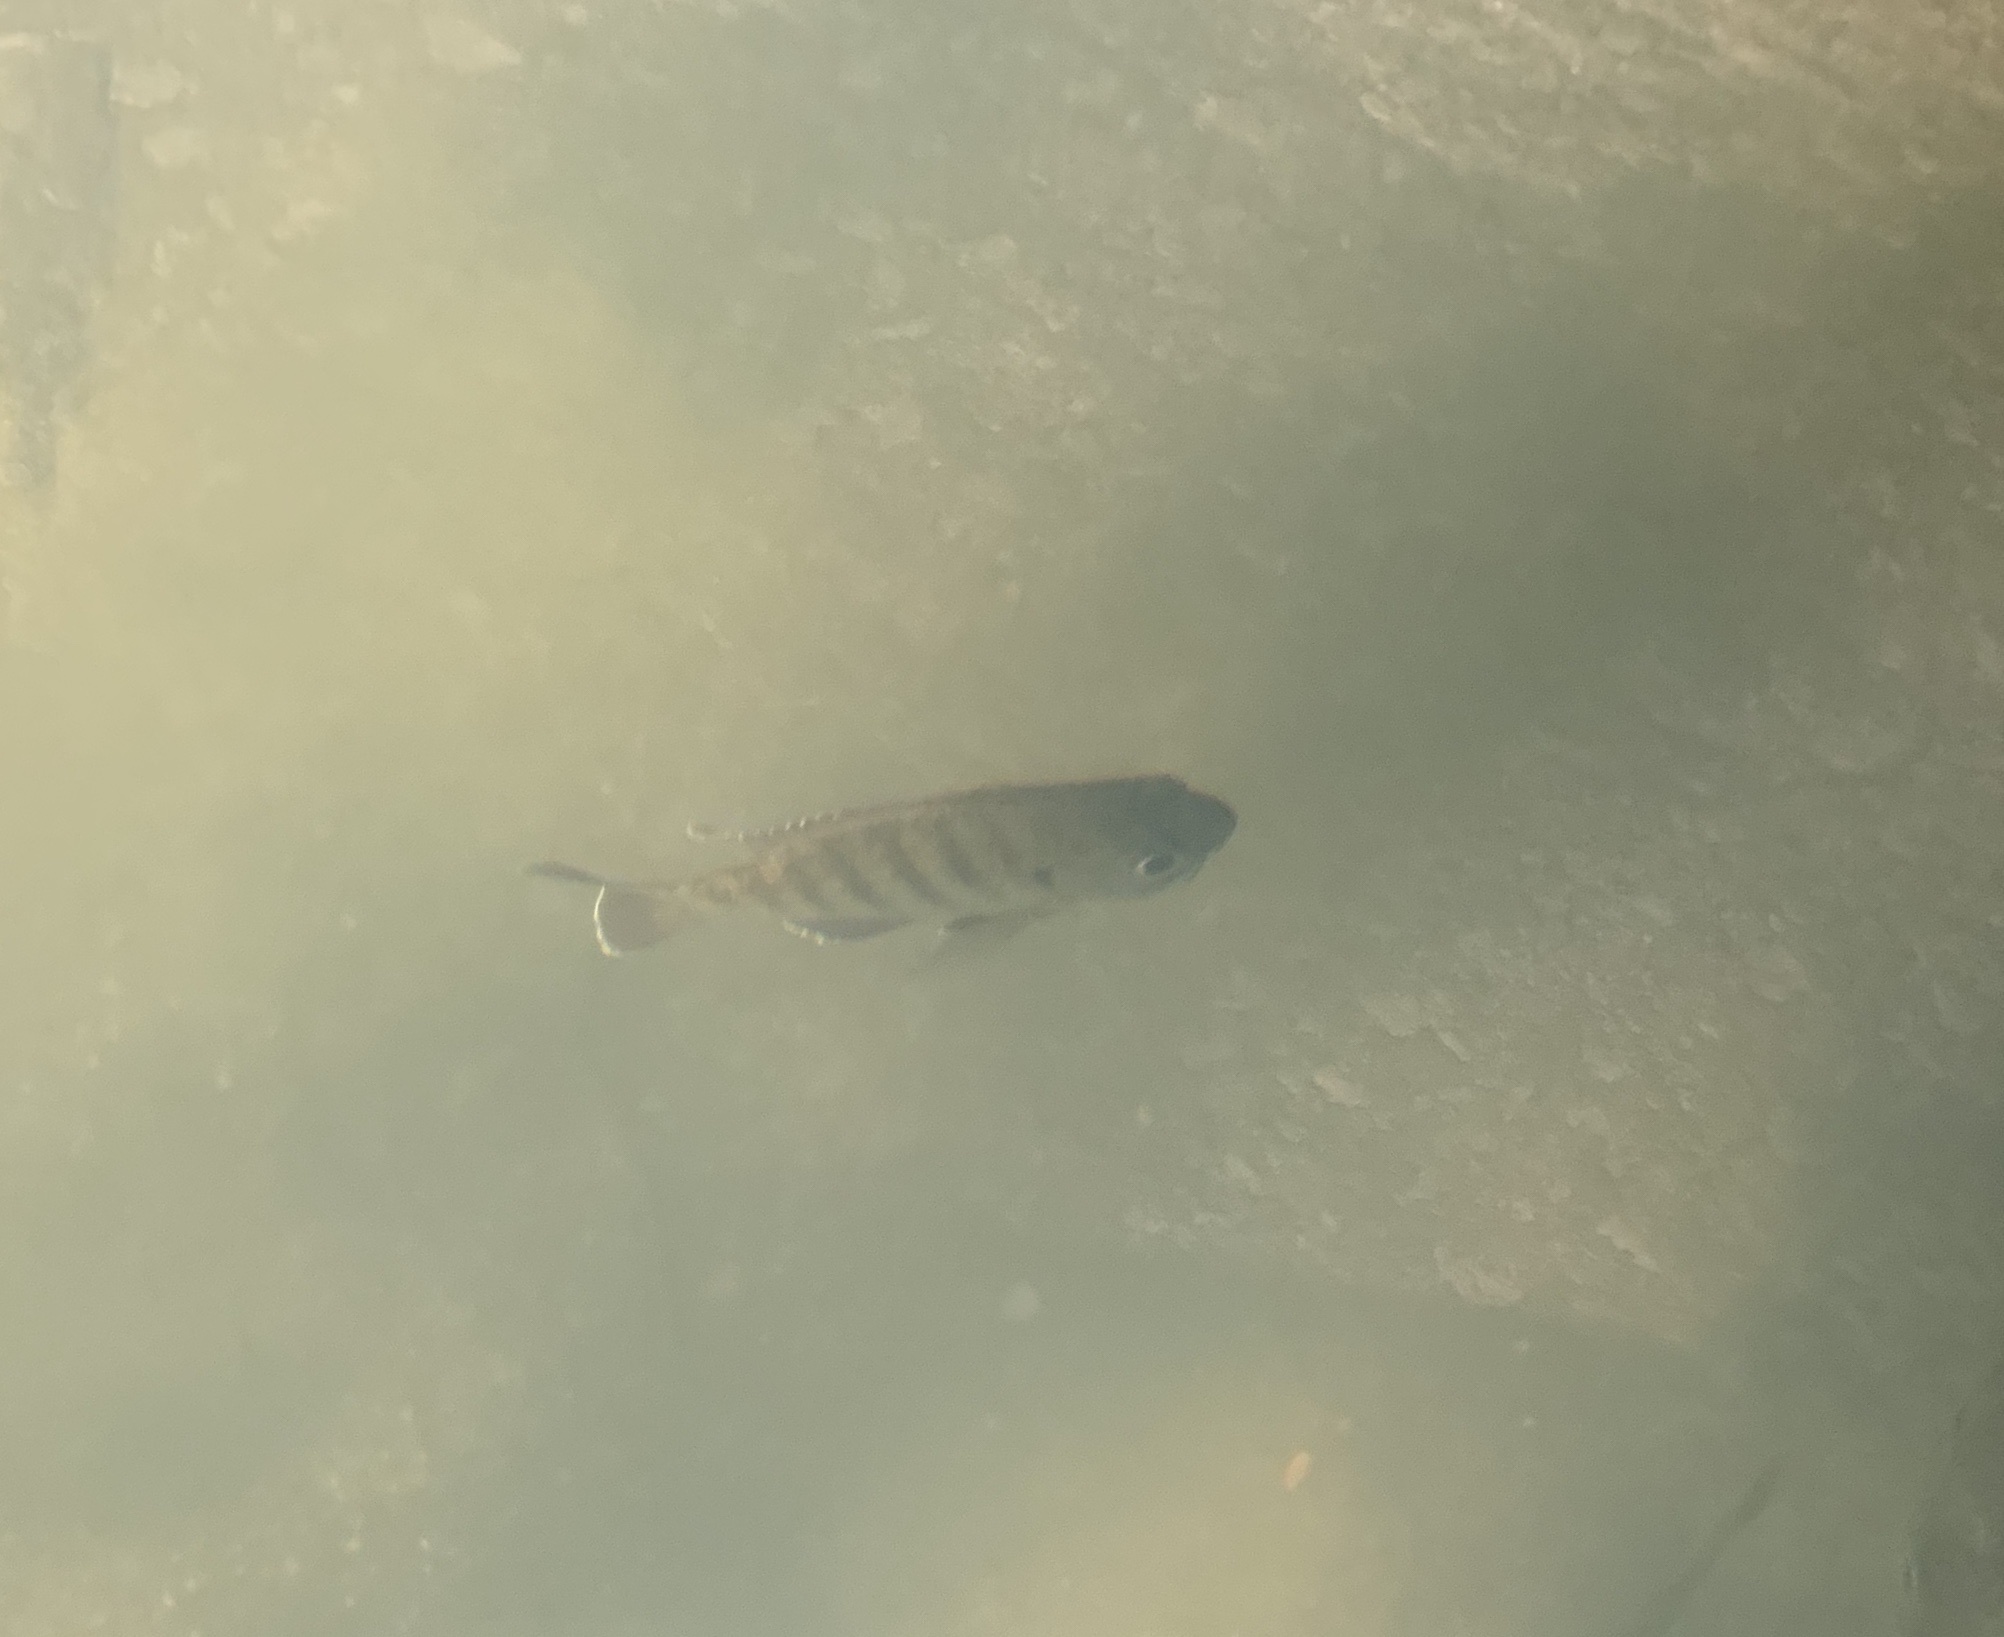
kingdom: Animalia
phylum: Chordata
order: Perciformes
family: Centrarchidae
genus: Lepomis
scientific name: Lepomis macrochirus
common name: Bluegill
